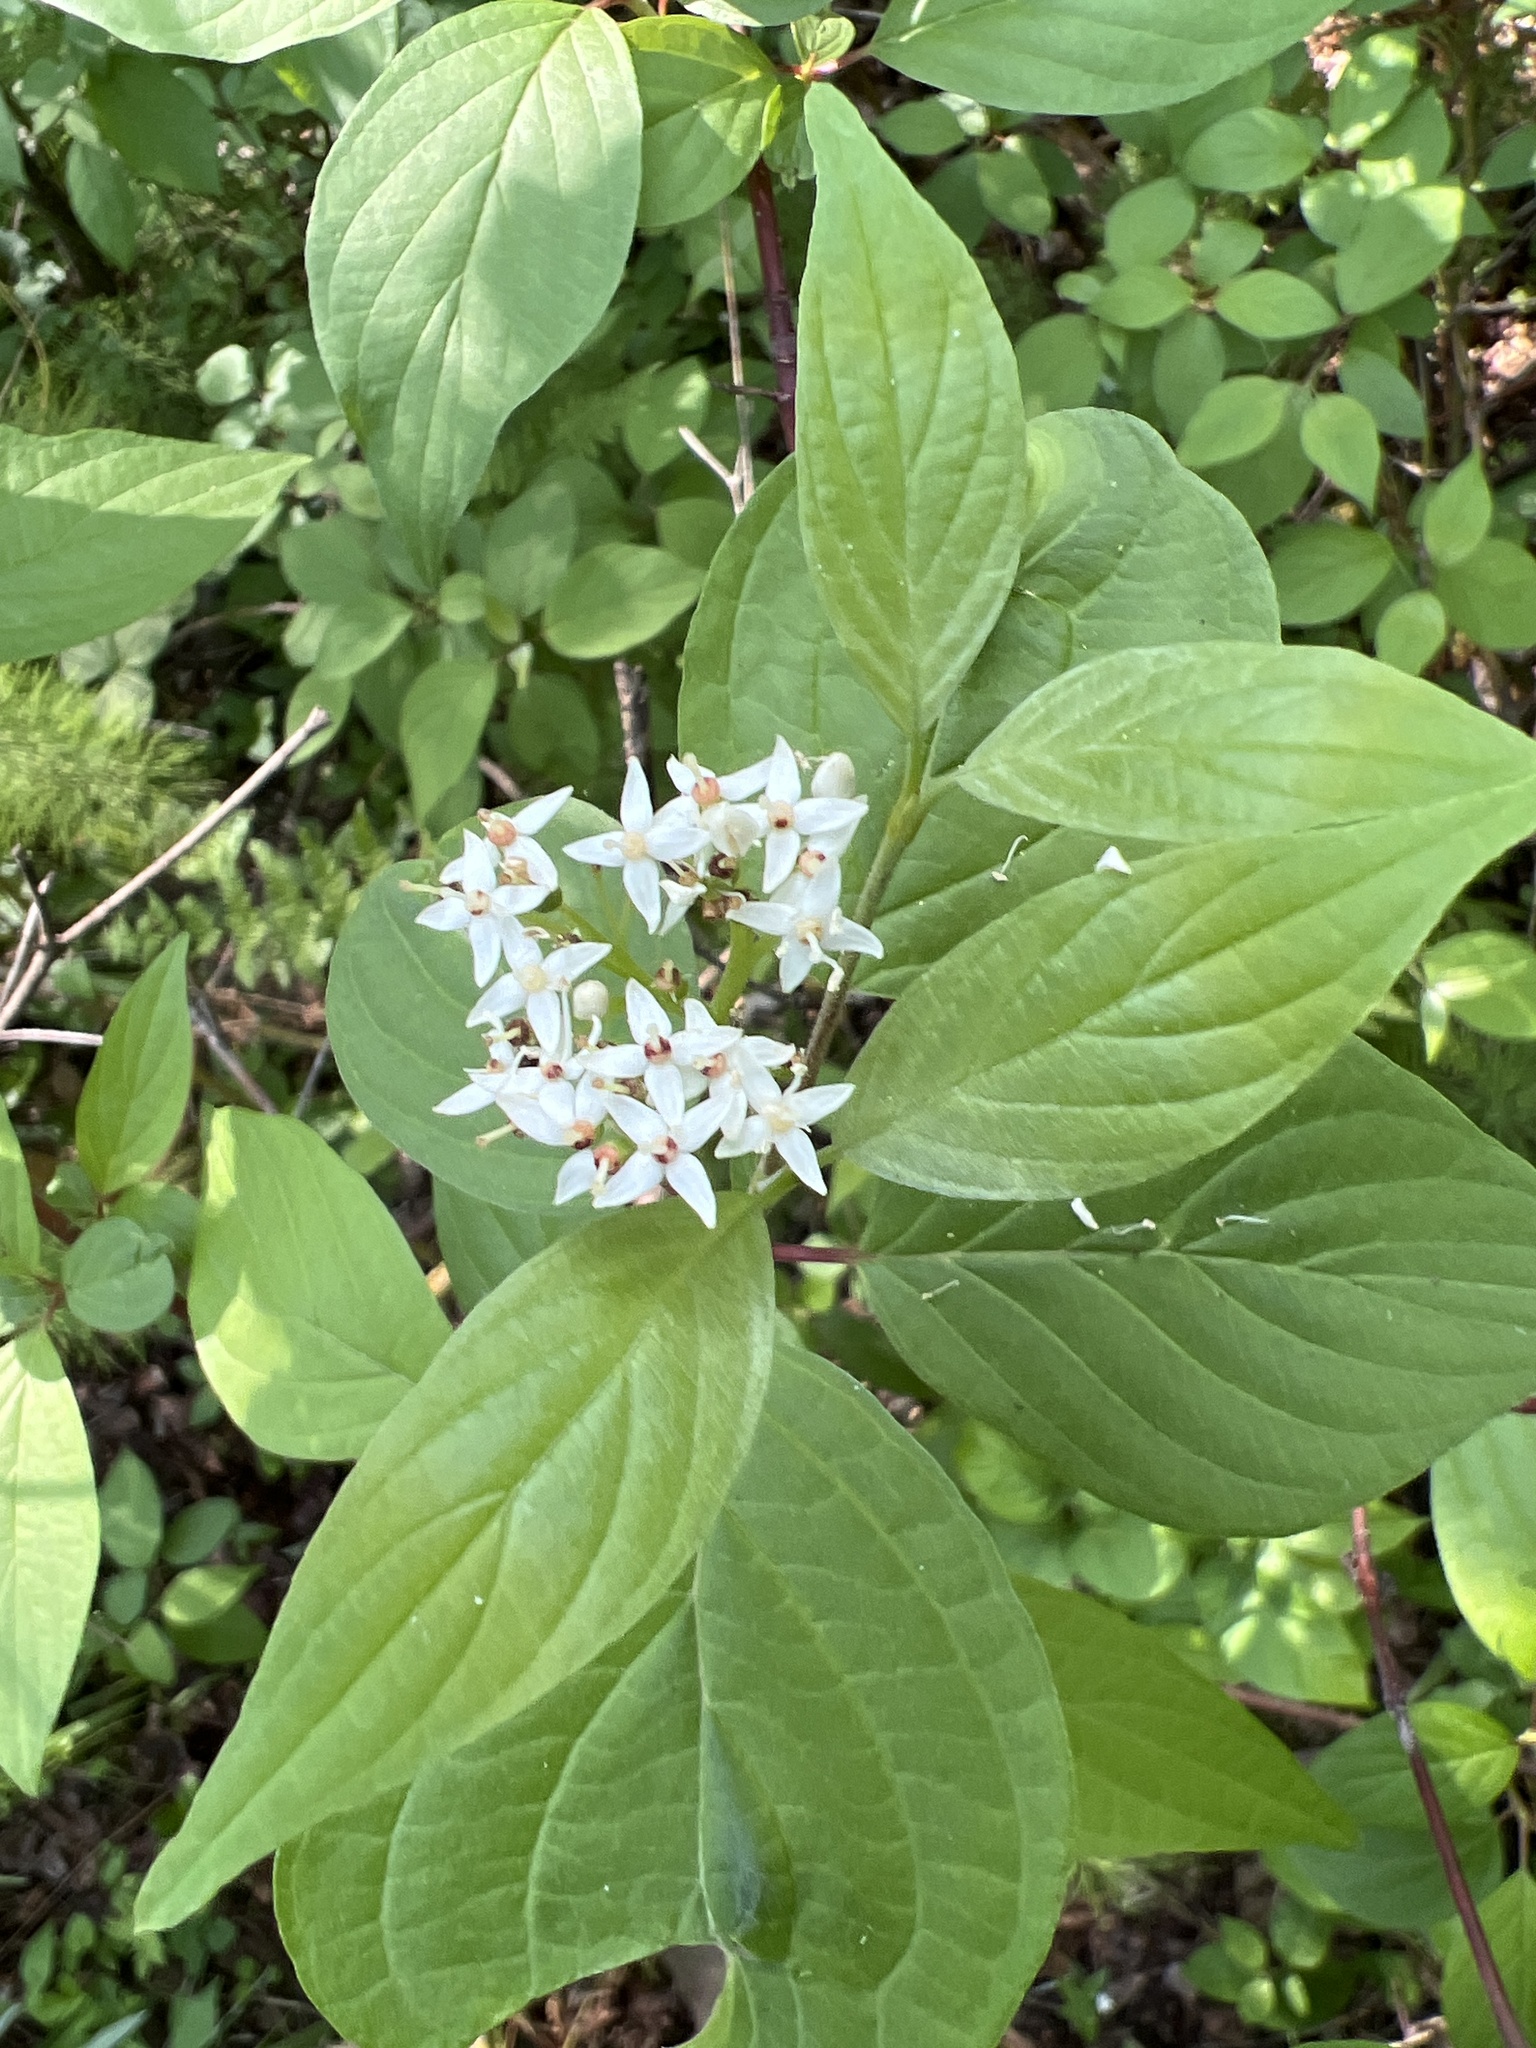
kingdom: Plantae
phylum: Tracheophyta
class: Magnoliopsida
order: Cornales
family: Cornaceae
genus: Cornus
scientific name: Cornus sericea
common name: Red-osier dogwood
